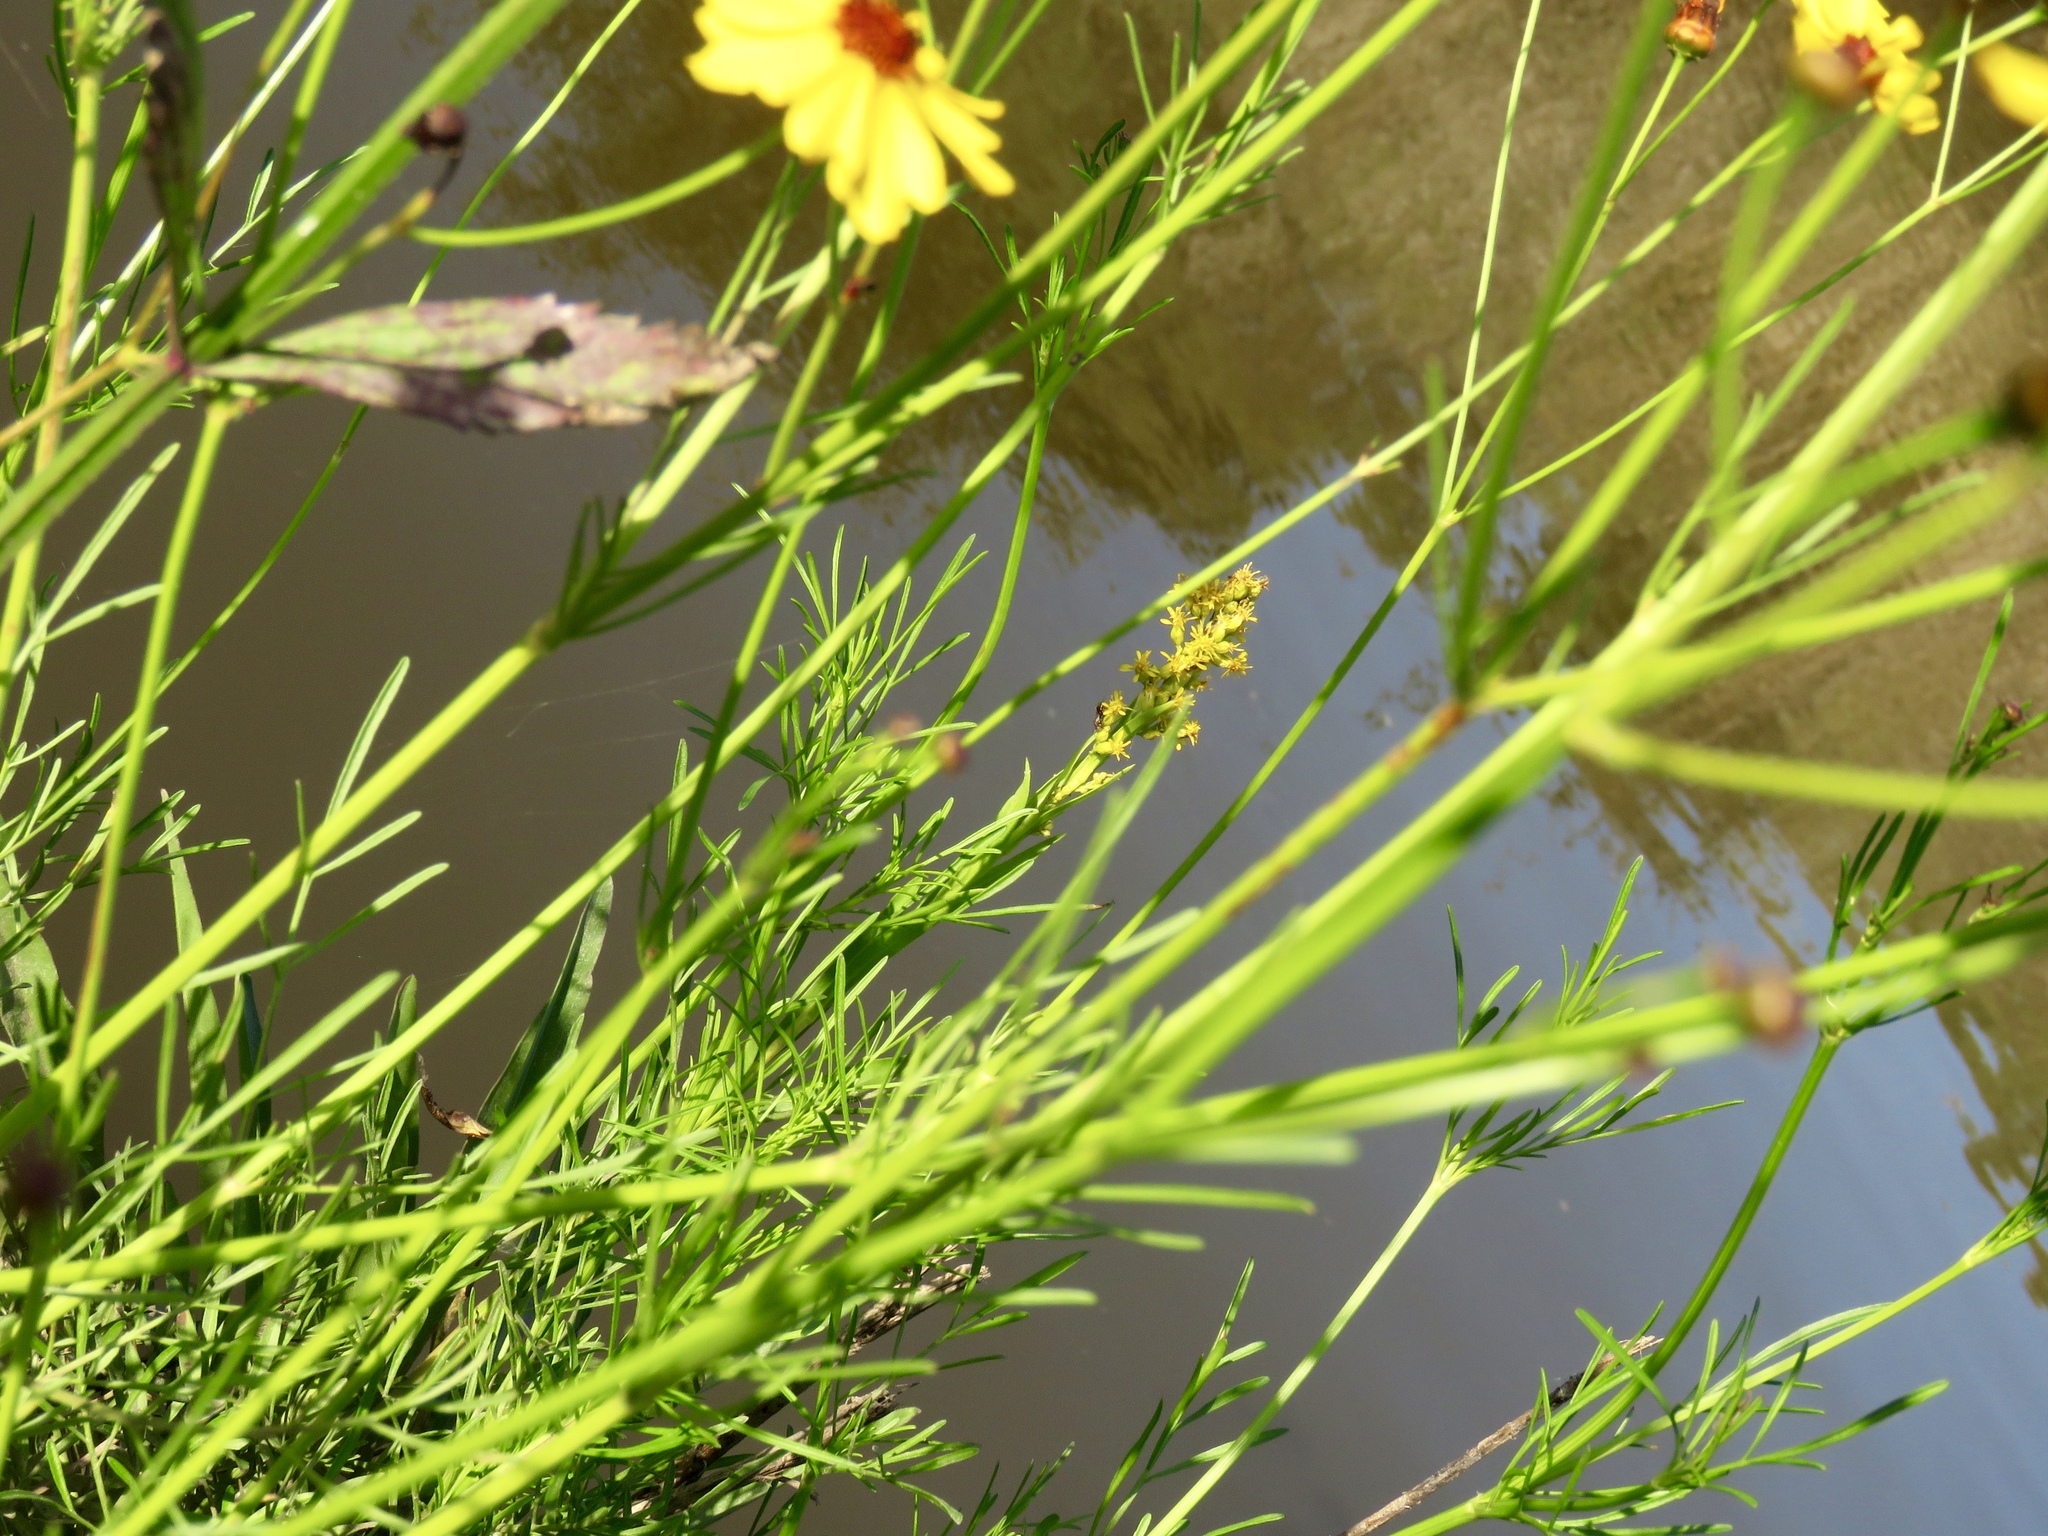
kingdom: Plantae
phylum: Tracheophyta
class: Magnoliopsida
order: Asterales
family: Asteraceae
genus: Coreopsis
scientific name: Coreopsis gladiata
